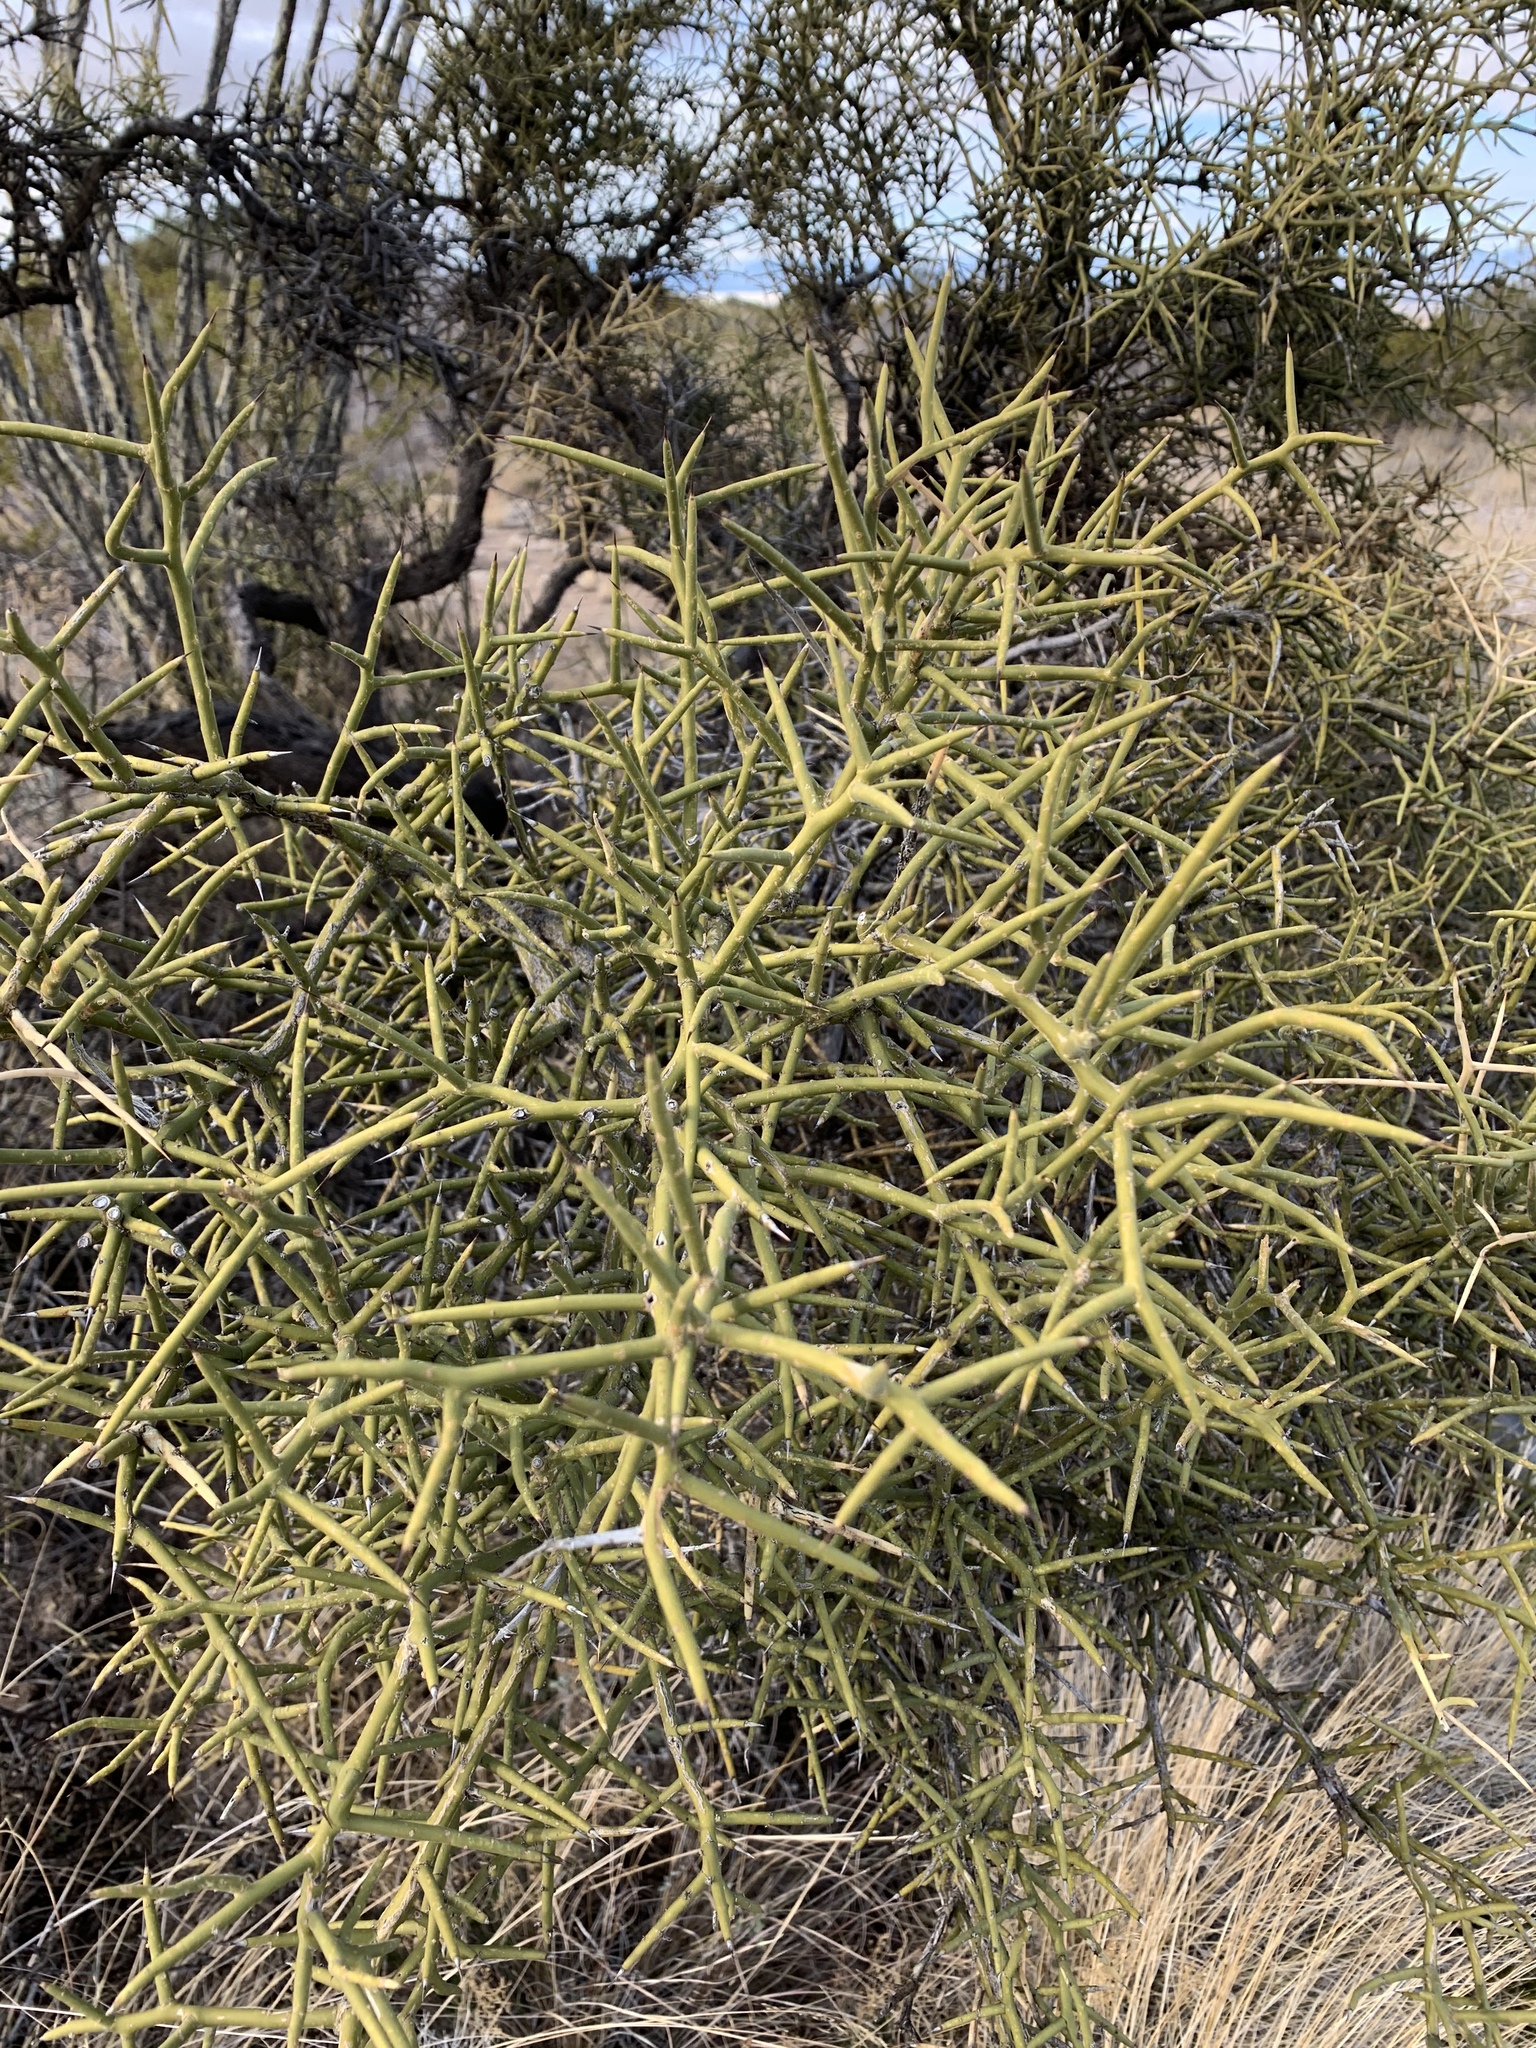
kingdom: Plantae
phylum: Tracheophyta
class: Magnoliopsida
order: Brassicales
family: Koeberliniaceae
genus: Koeberlinia
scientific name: Koeberlinia spinosa
